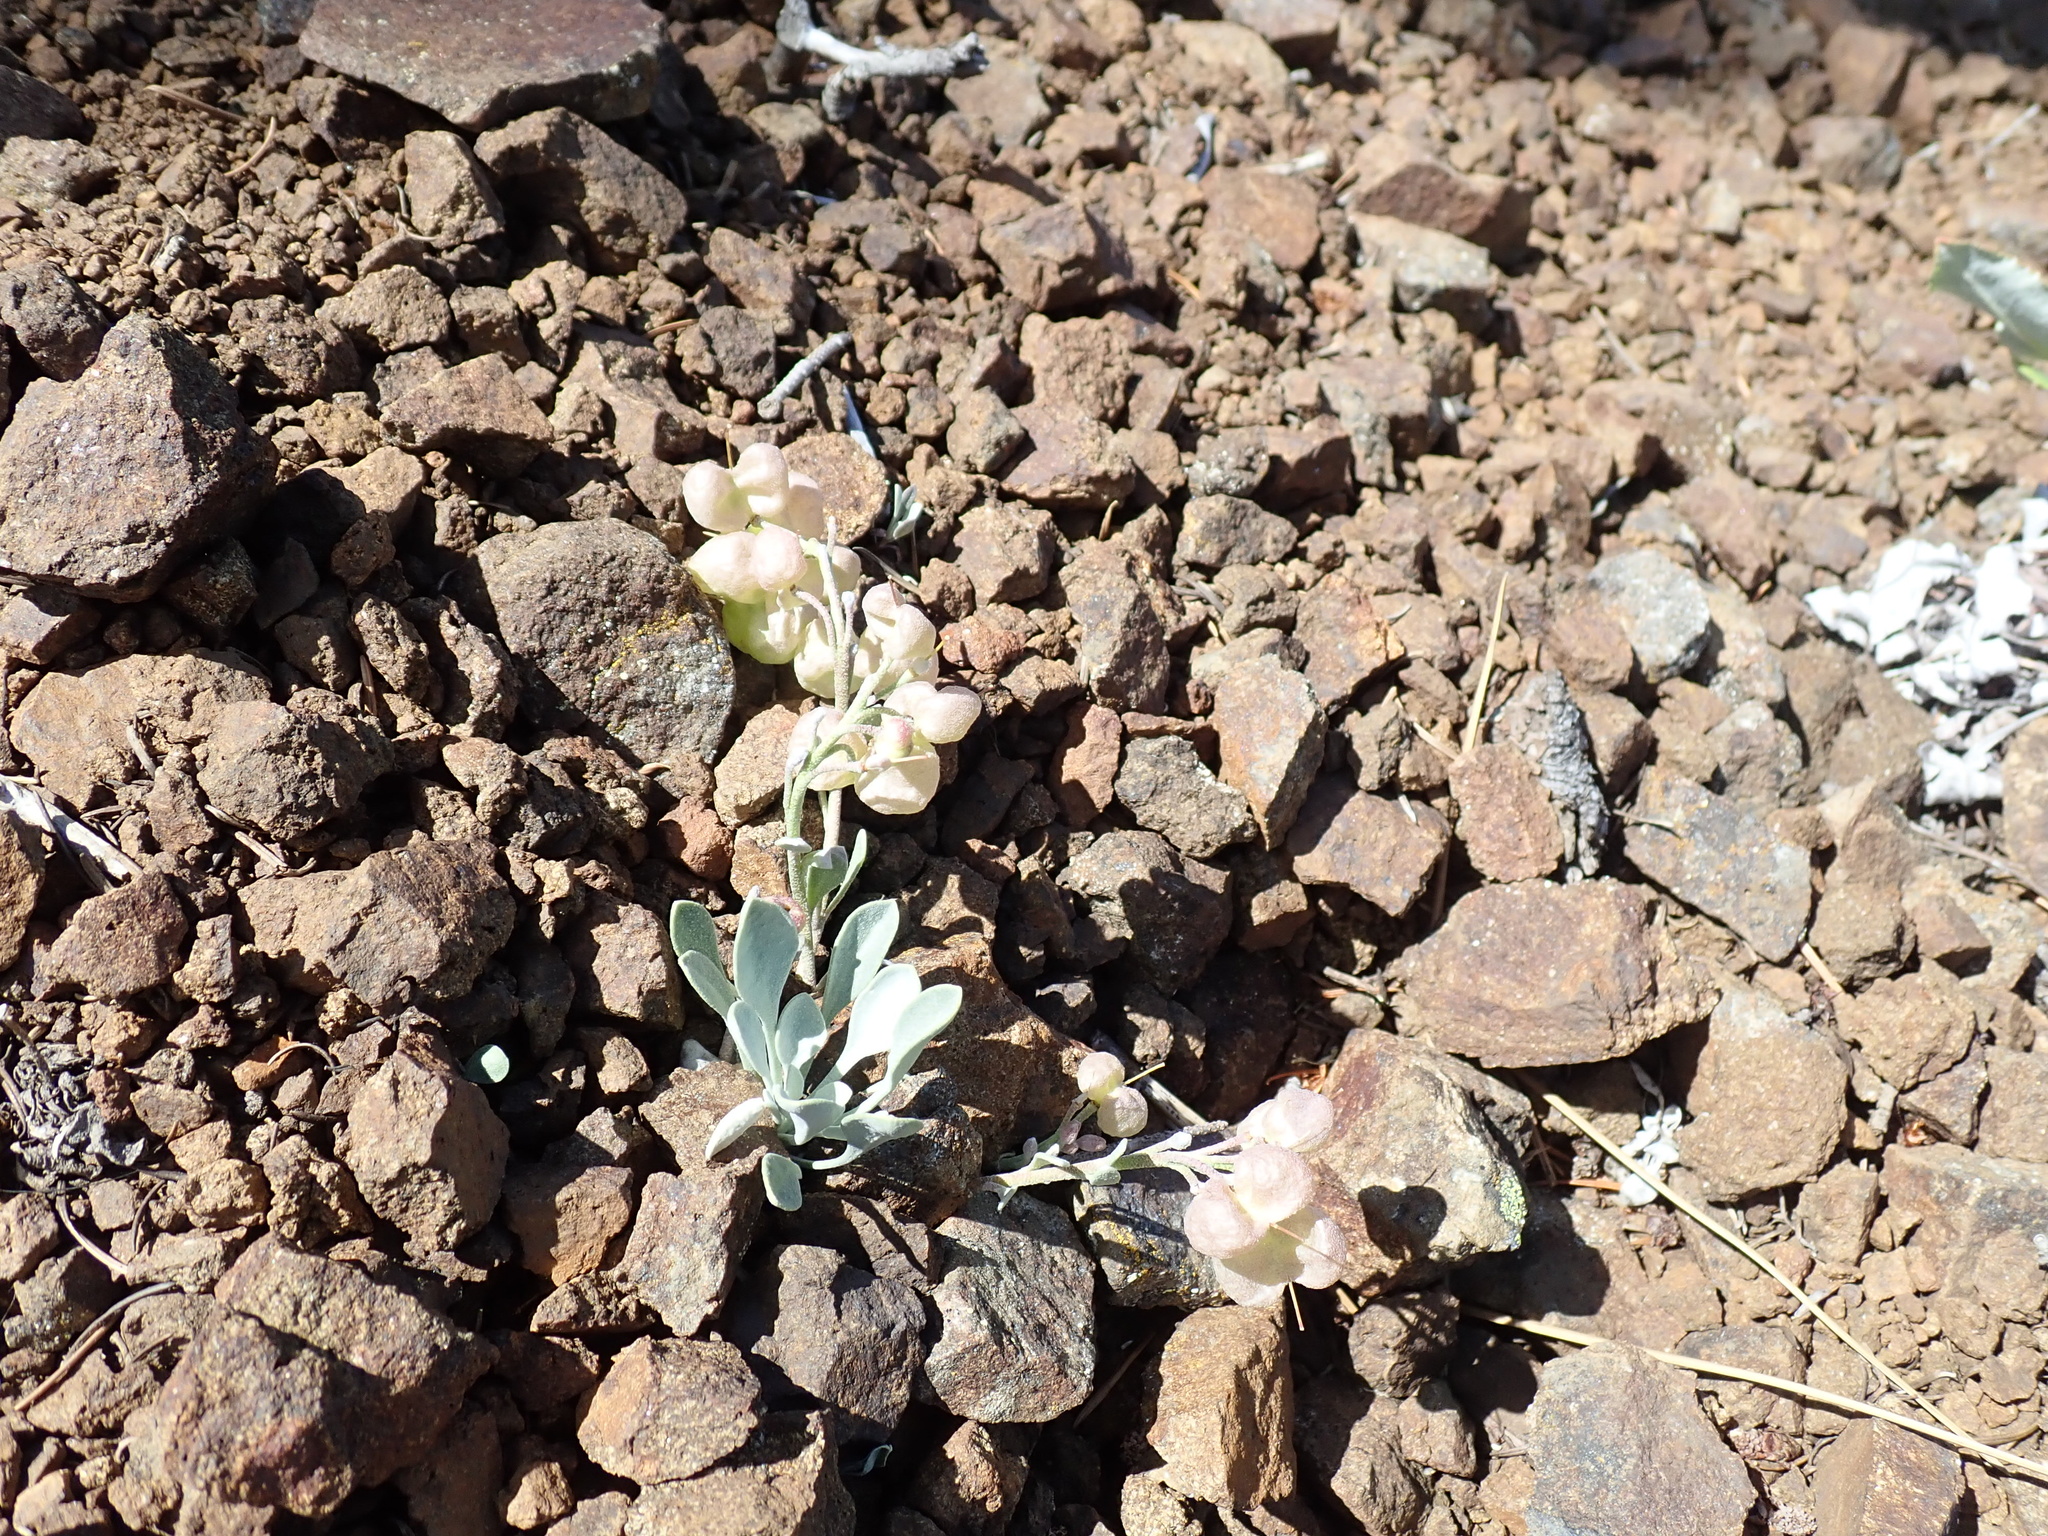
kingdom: Plantae
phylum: Tracheophyta
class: Magnoliopsida
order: Brassicales
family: Brassicaceae
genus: Physaria
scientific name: Physaria alpestris
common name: Washington twinpod
